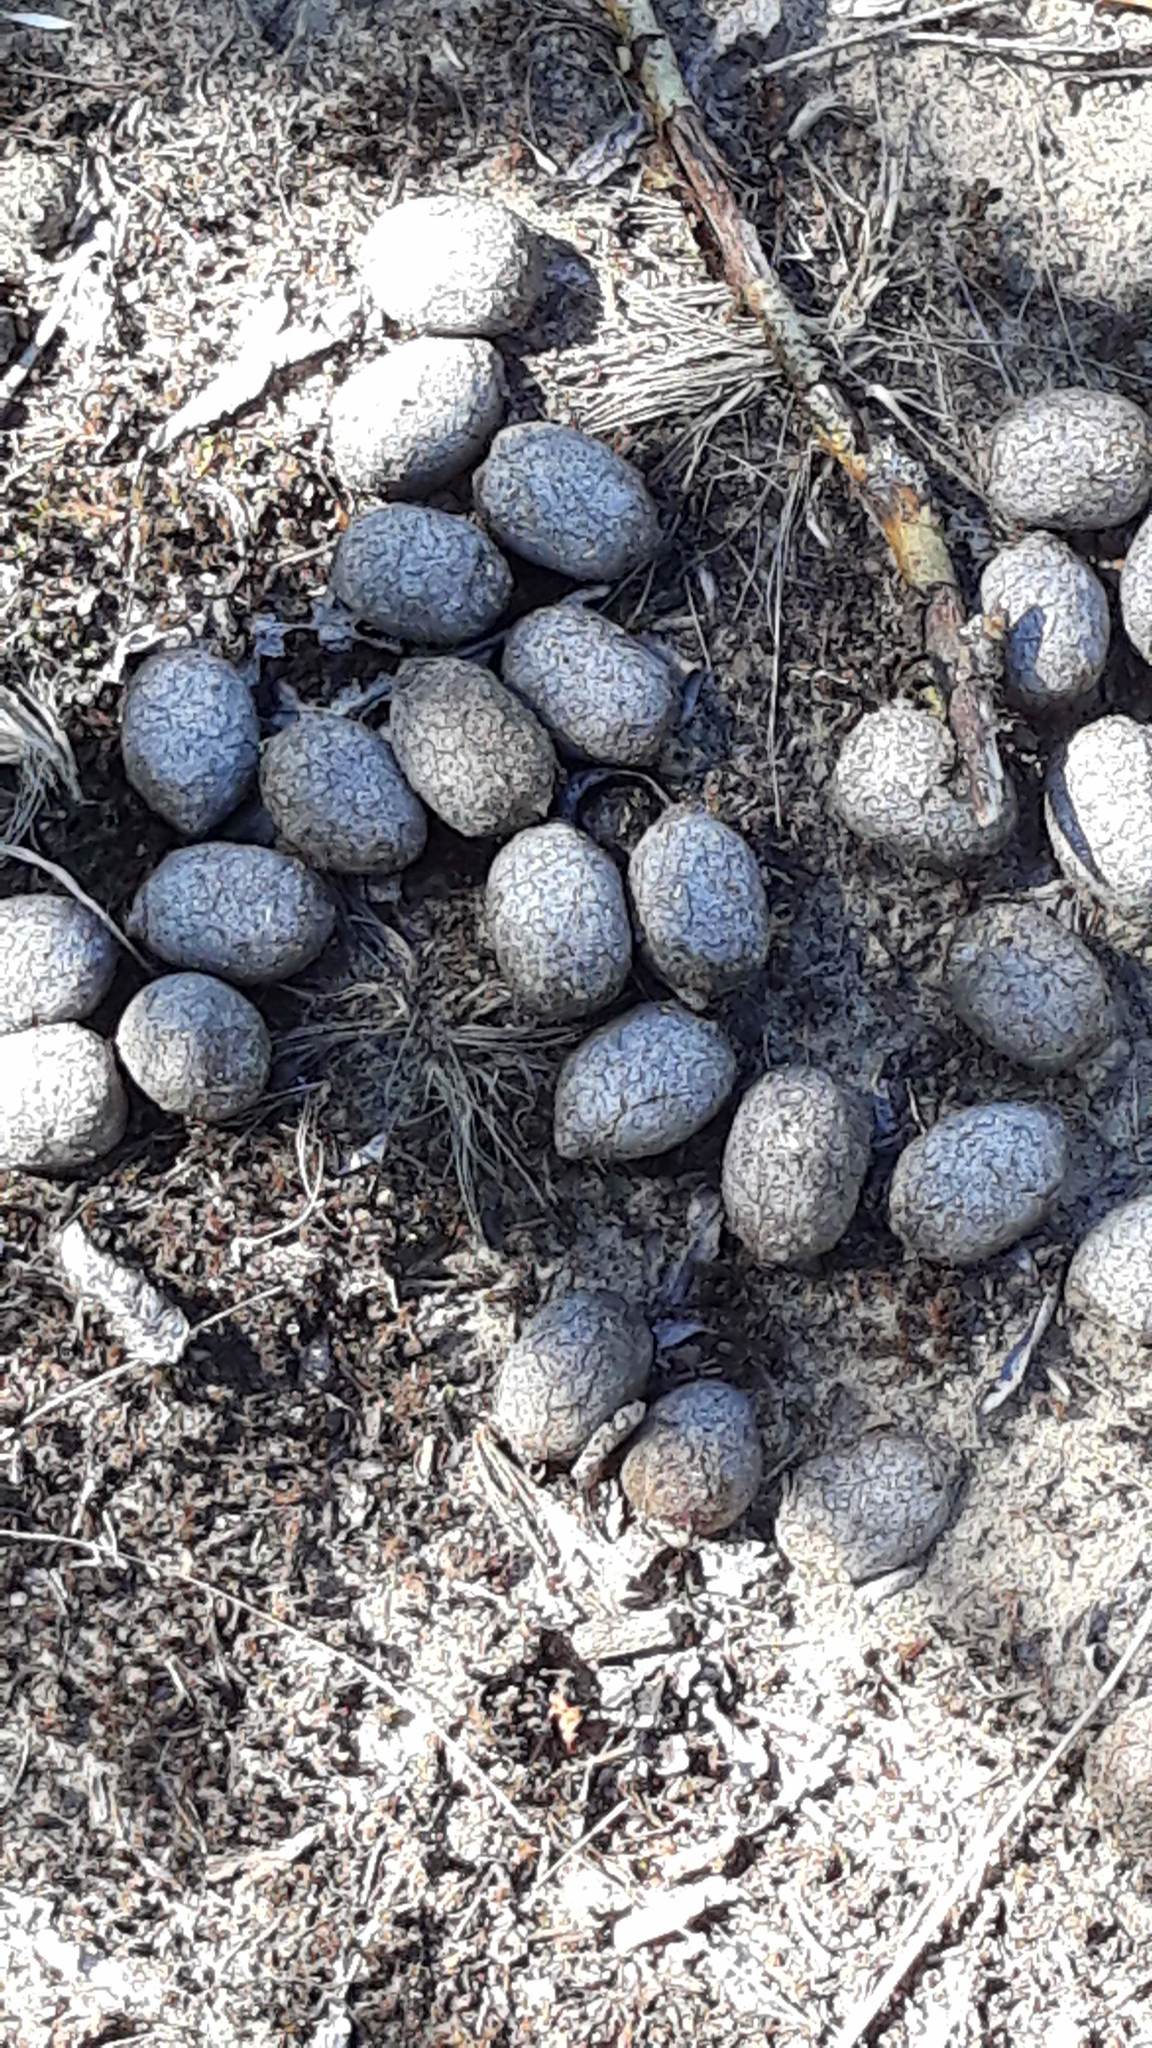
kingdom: Animalia
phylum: Chordata
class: Mammalia
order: Artiodactyla
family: Cervidae
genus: Alces
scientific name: Alces alces
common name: Moose
